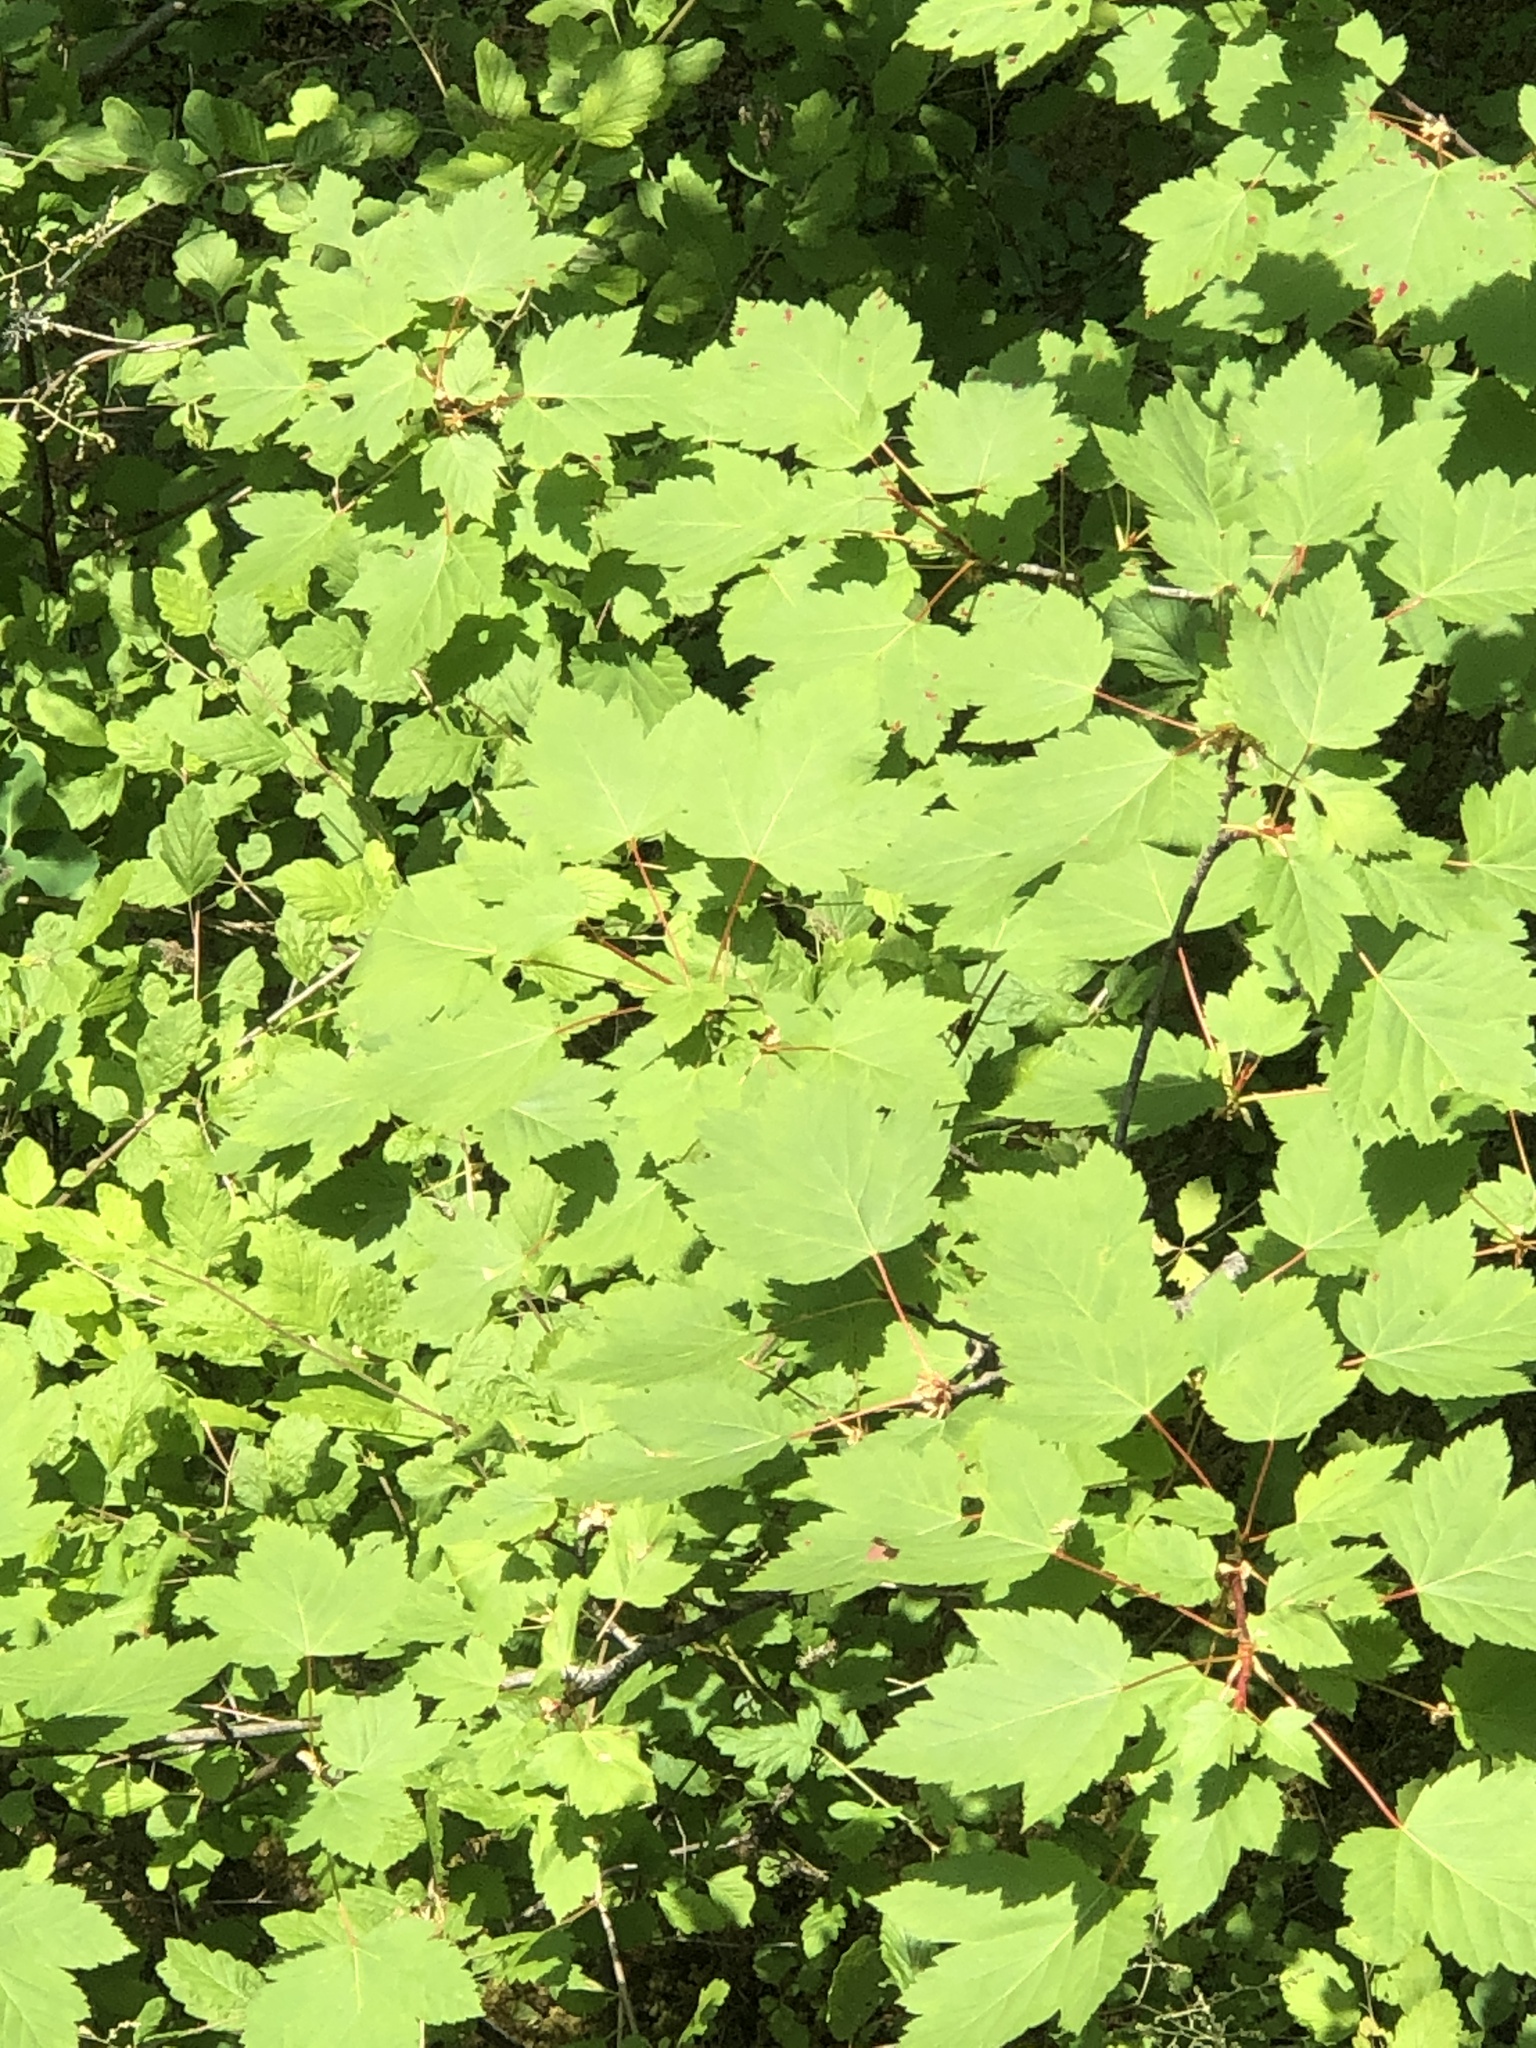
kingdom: Plantae
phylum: Tracheophyta
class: Magnoliopsida
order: Sapindales
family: Sapindaceae
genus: Acer
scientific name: Acer glabrum
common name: Rocky mountain maple
